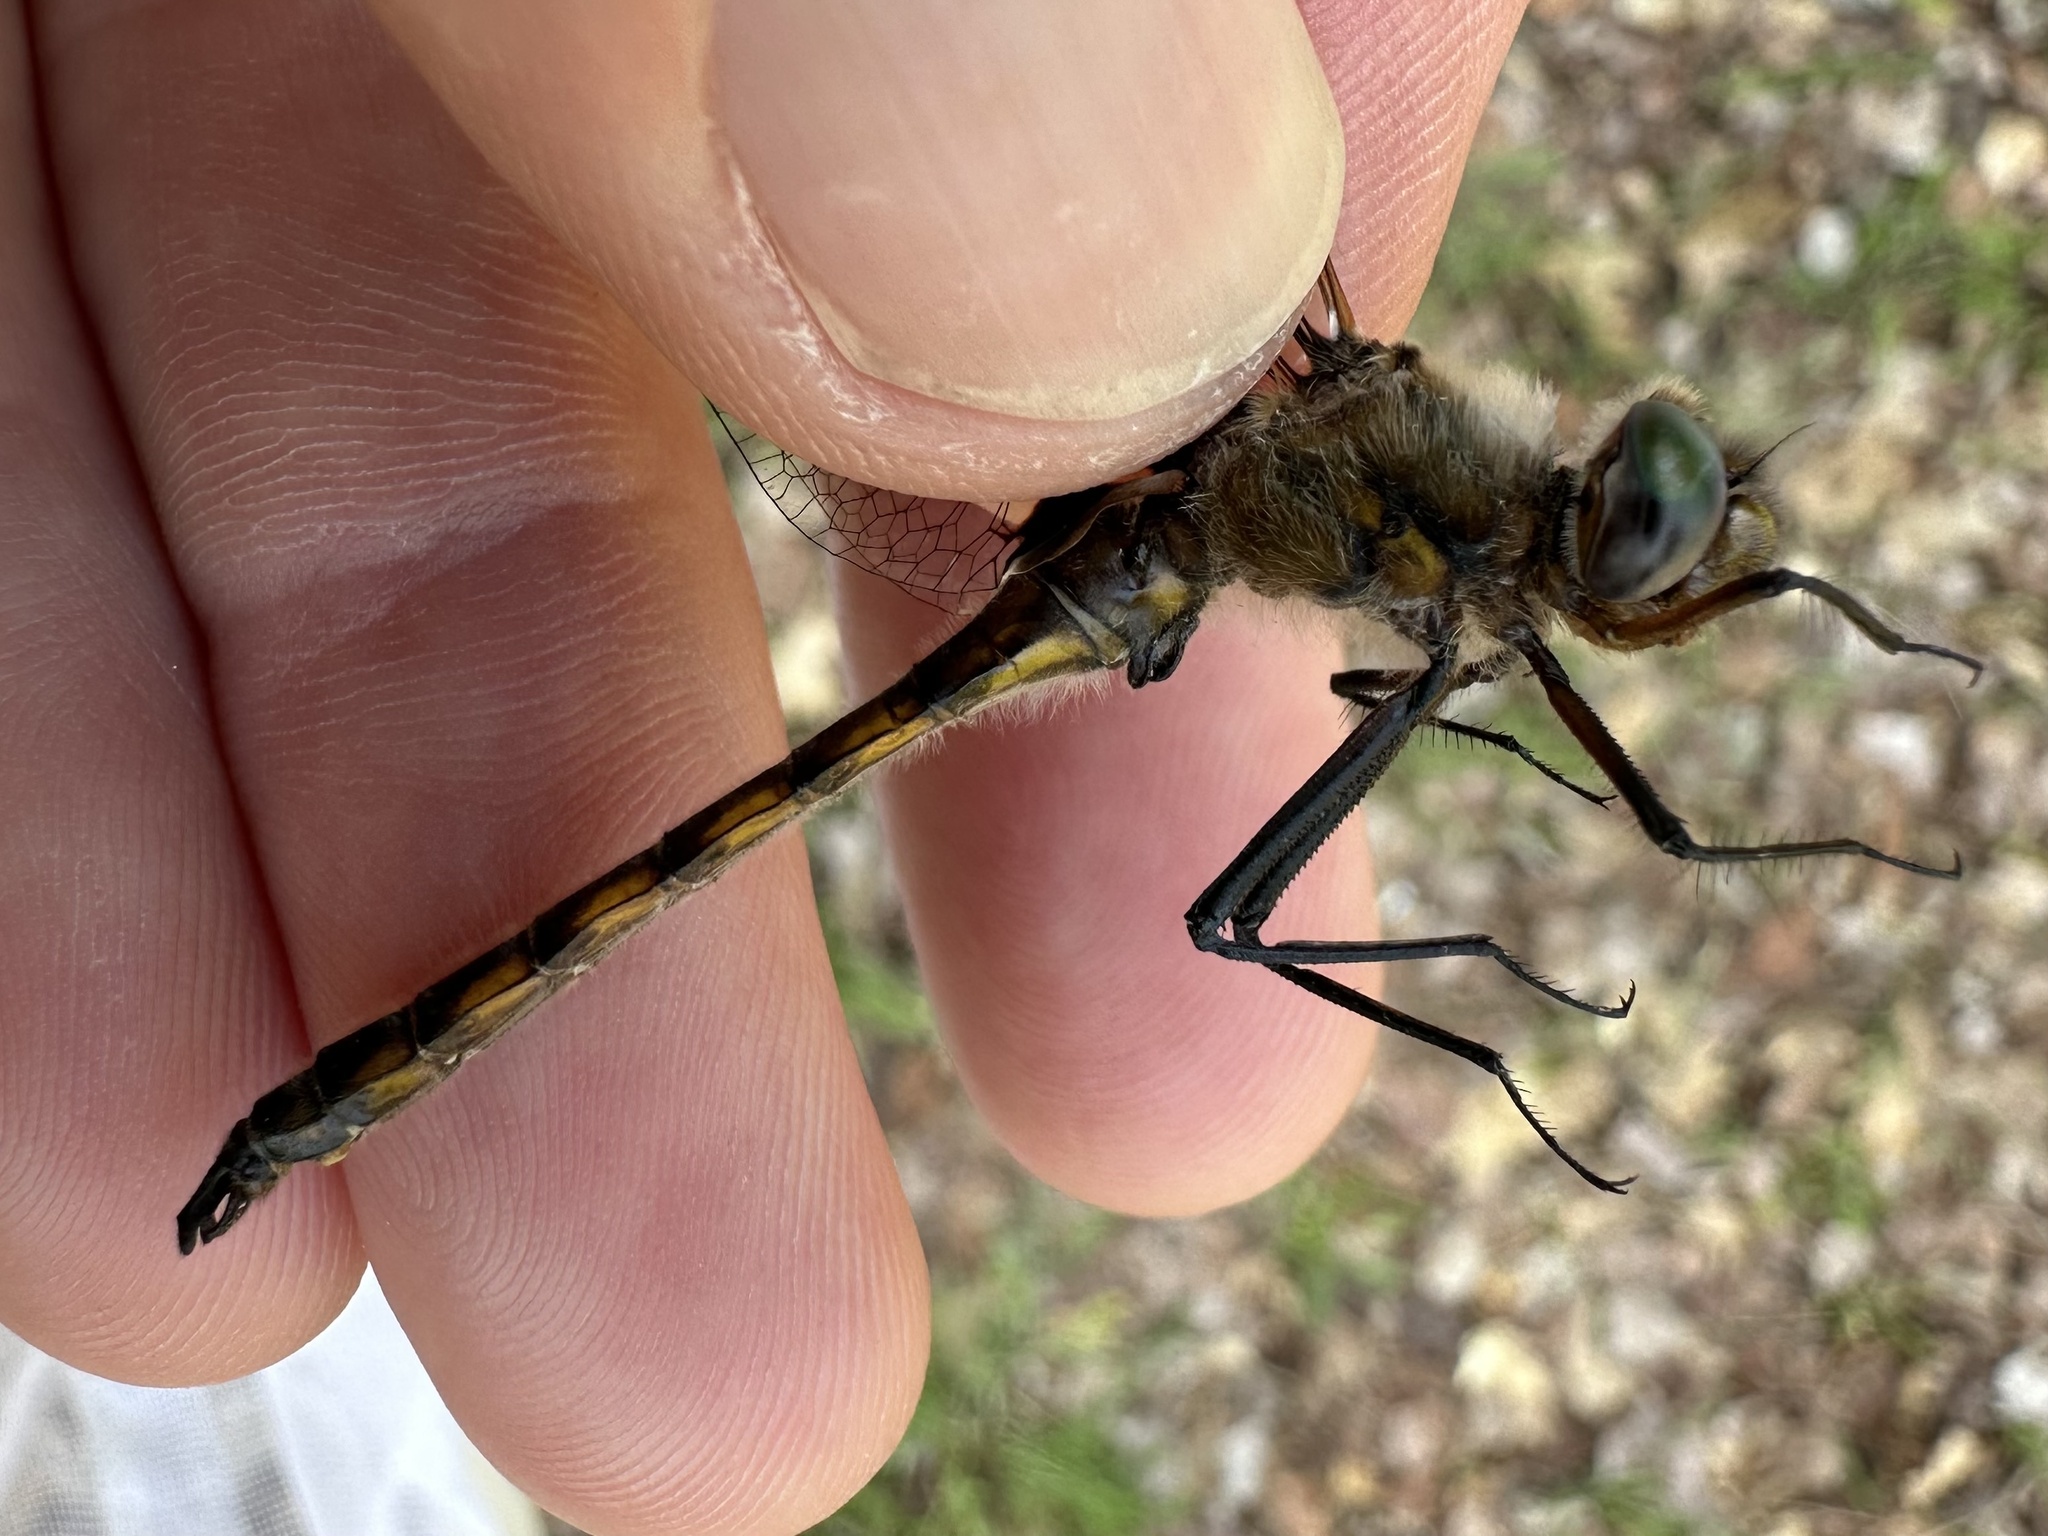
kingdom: Animalia
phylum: Arthropoda
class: Insecta
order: Odonata
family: Corduliidae
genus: Epitheca
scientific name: Epitheca canis
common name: Beaverpond baskettail
